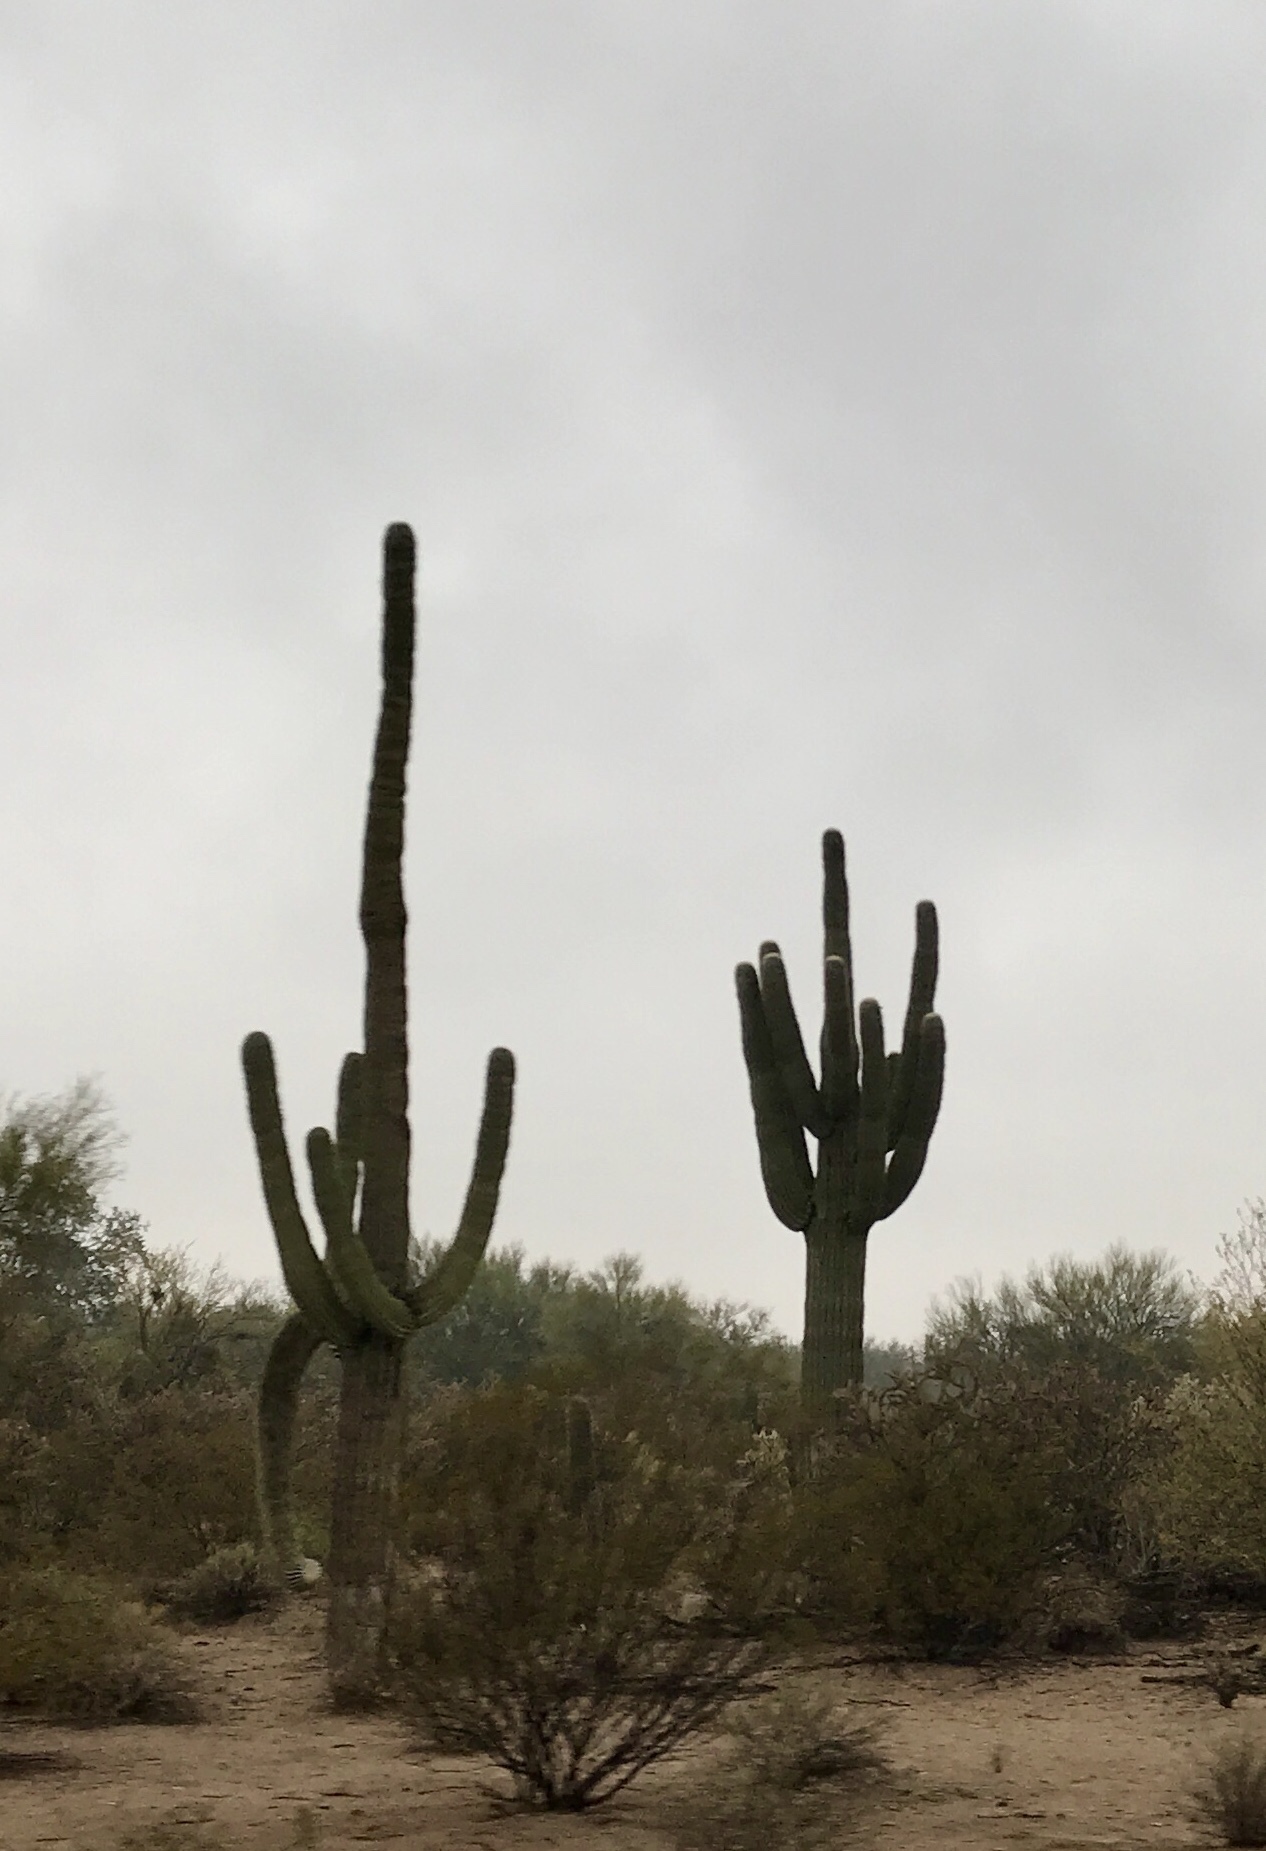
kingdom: Plantae
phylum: Tracheophyta
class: Magnoliopsida
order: Caryophyllales
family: Cactaceae
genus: Carnegiea
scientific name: Carnegiea gigantea
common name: Saguaro
